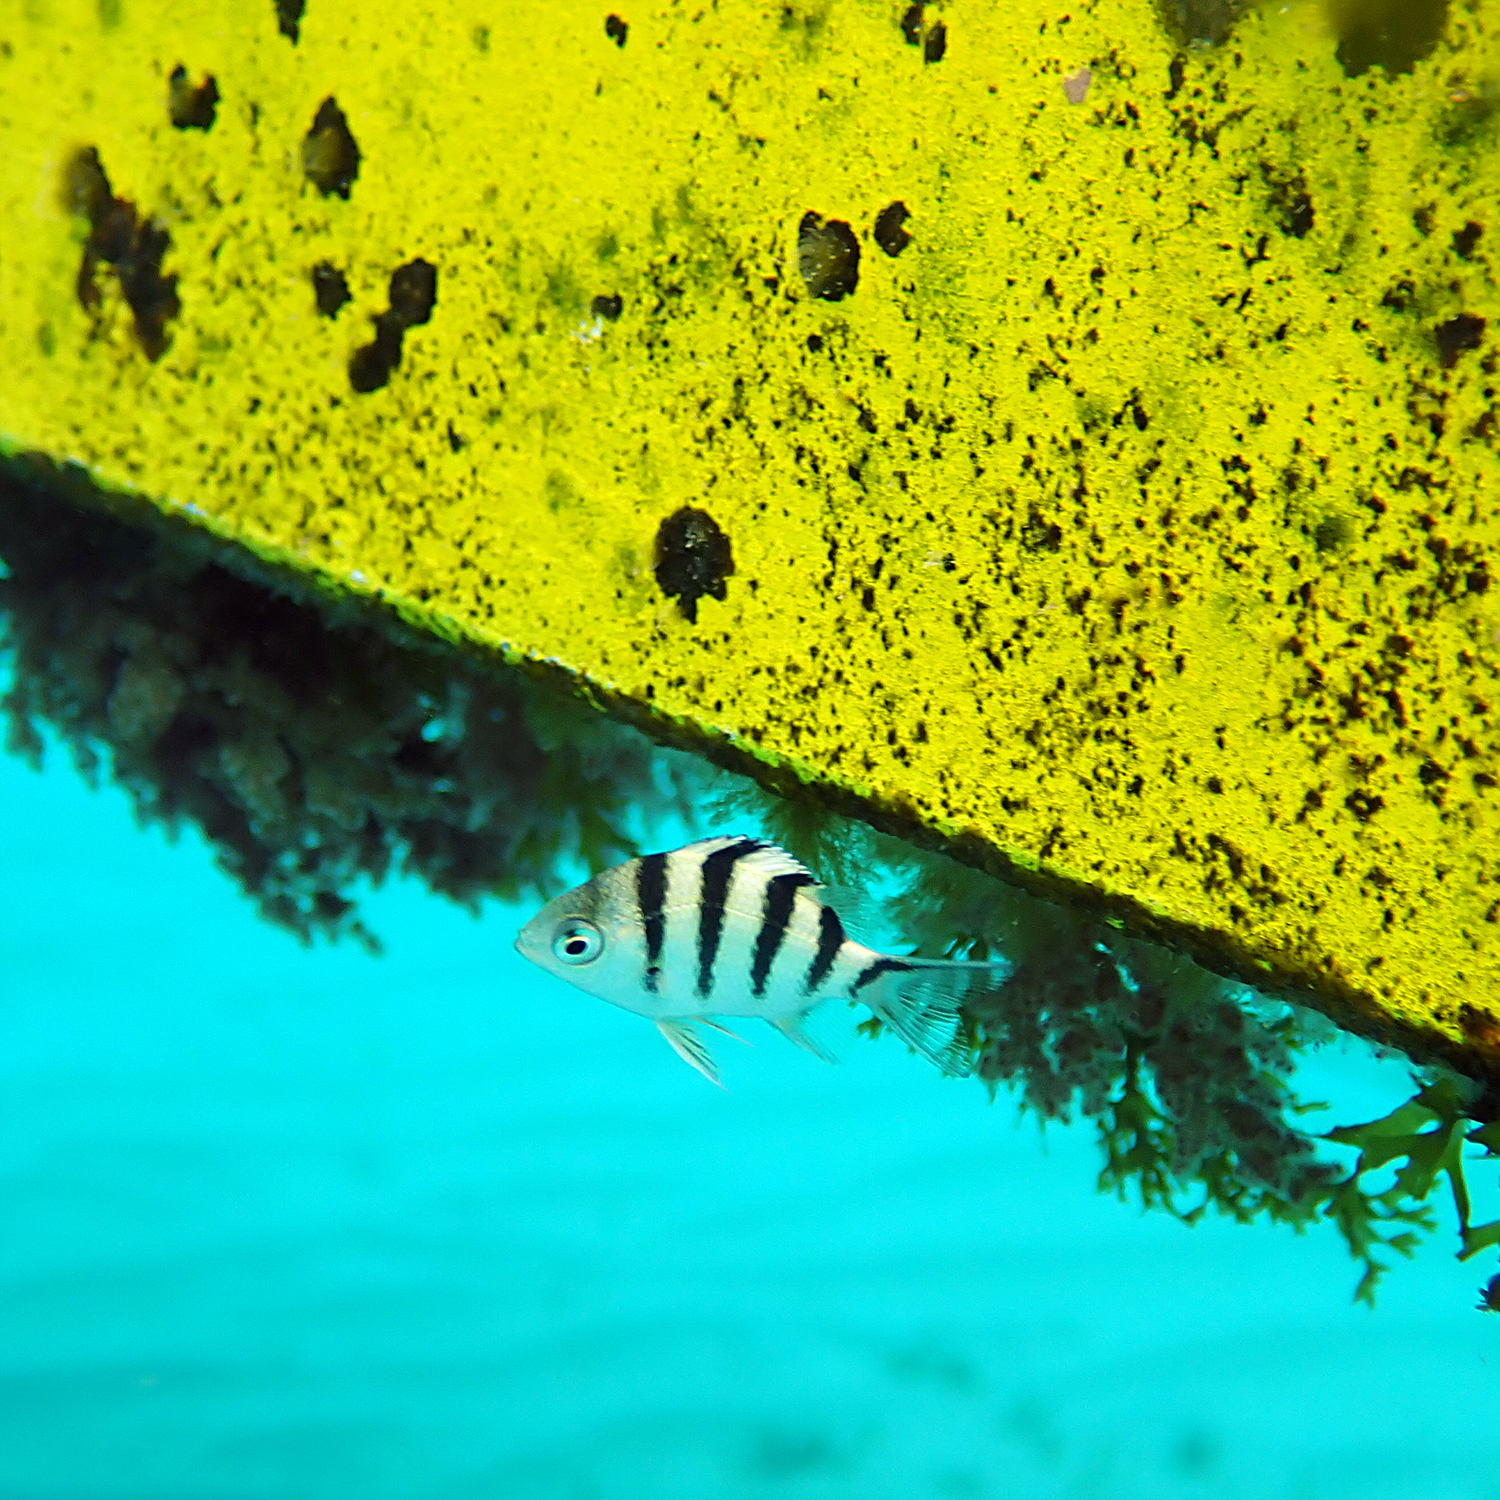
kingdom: Animalia
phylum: Chordata
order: Perciformes
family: Pomacentridae
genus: Abudefduf
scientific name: Abudefduf sexfasciatus
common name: Scissortail sergeant
